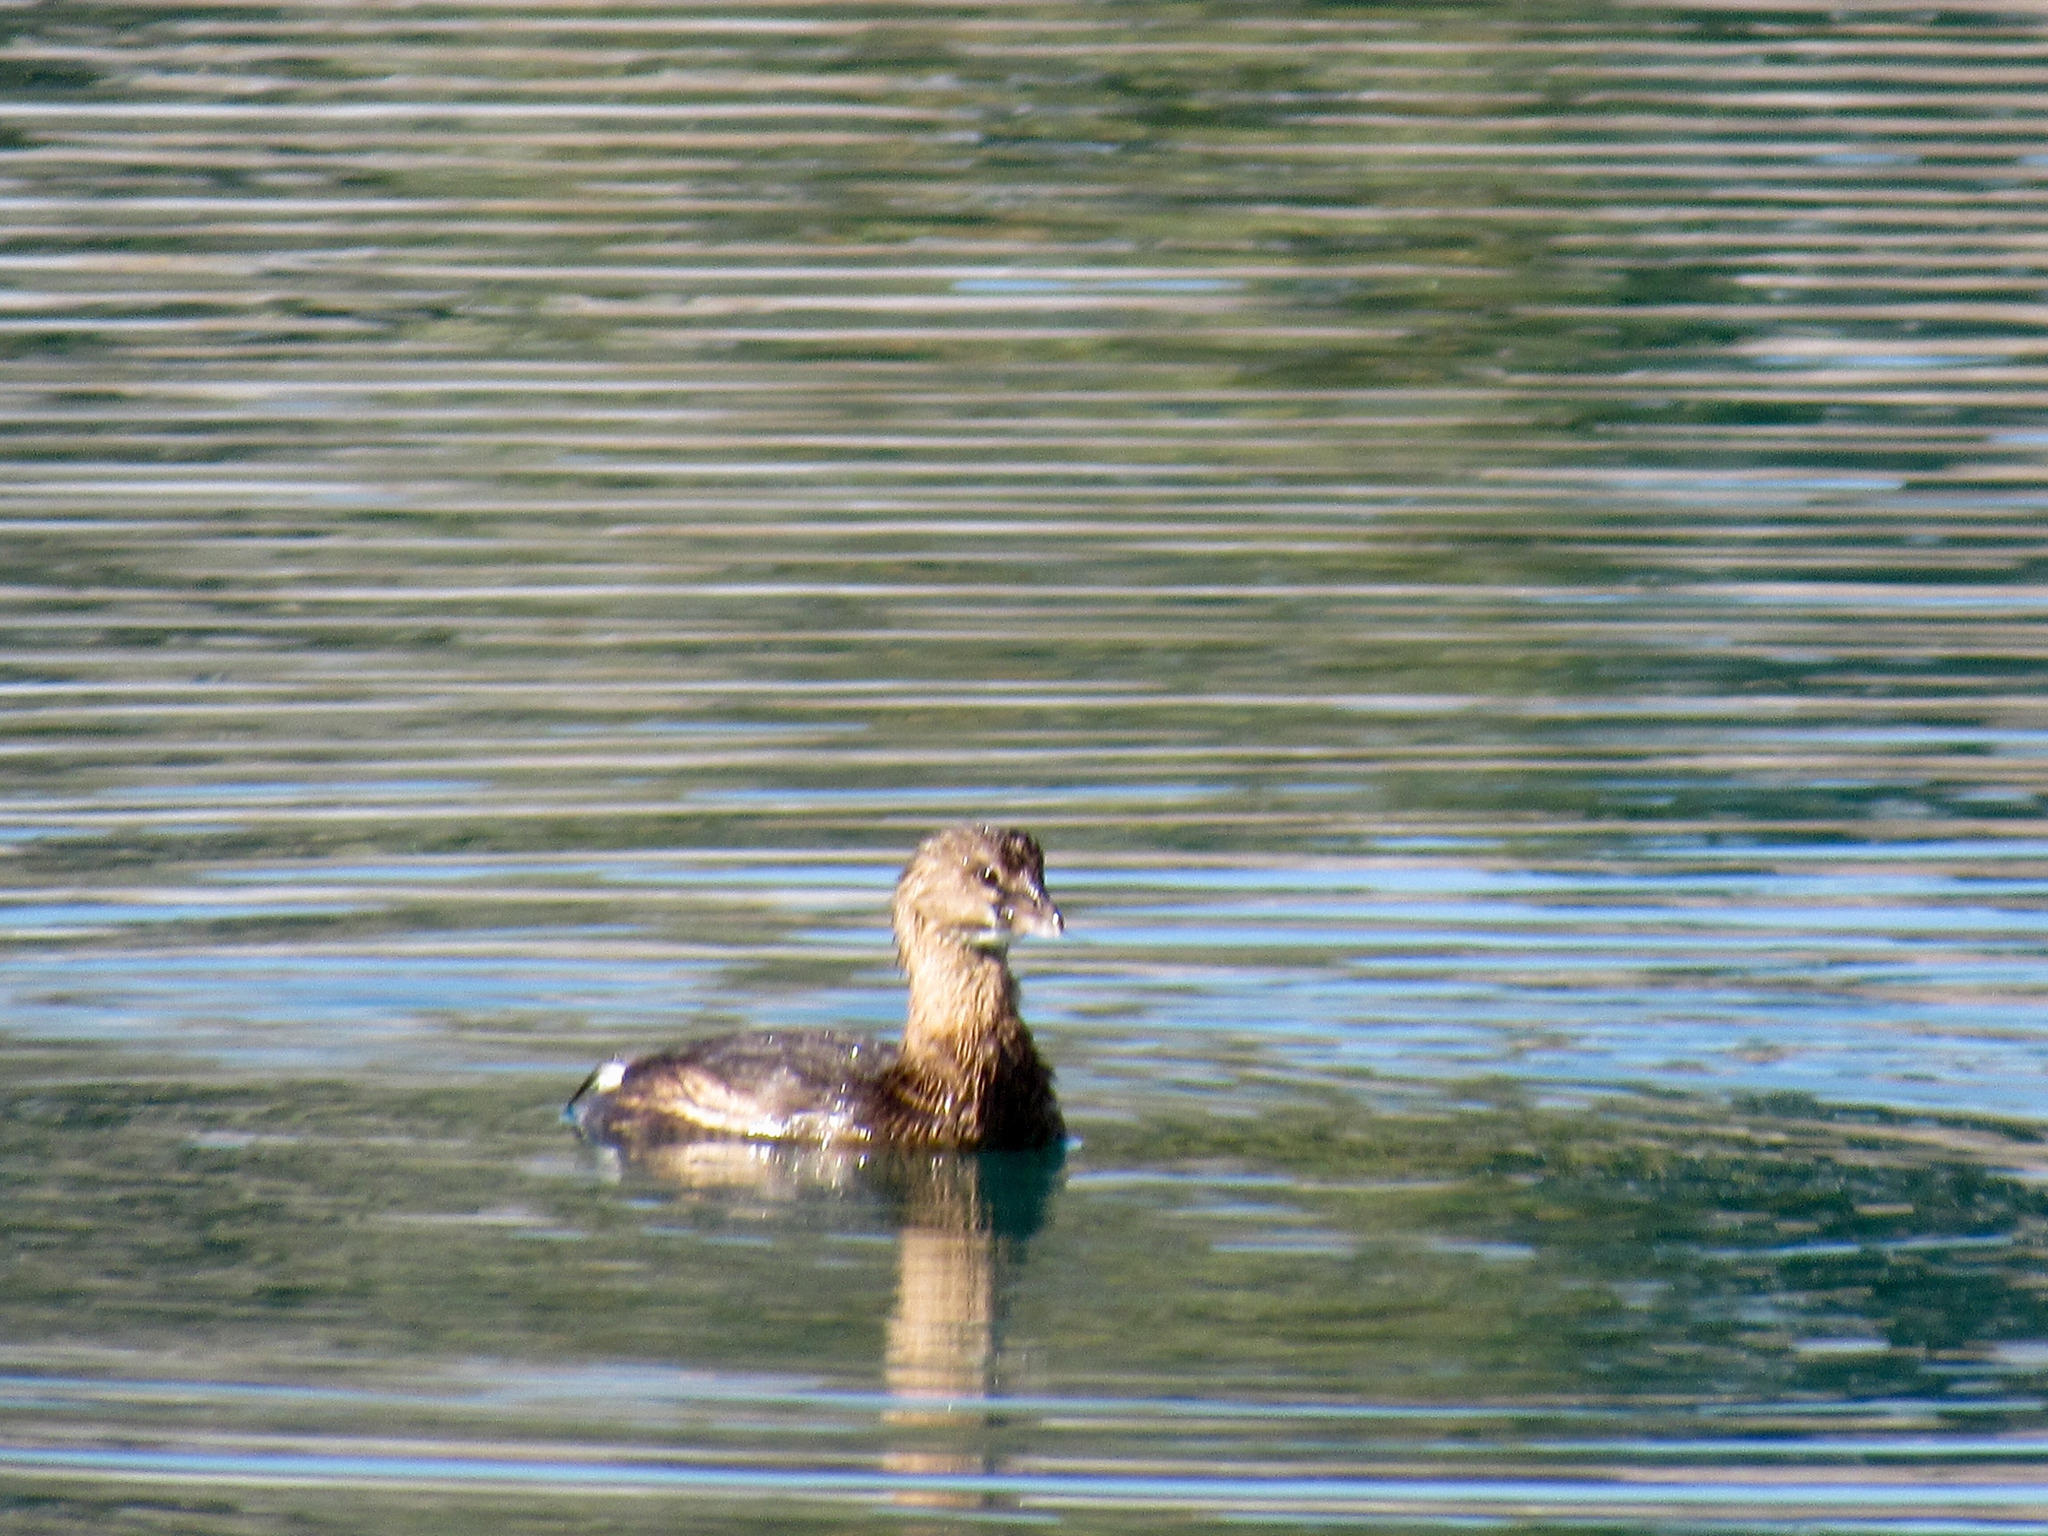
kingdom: Animalia
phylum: Chordata
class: Aves
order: Podicipediformes
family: Podicipedidae
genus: Podilymbus
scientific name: Podilymbus podiceps
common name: Pied-billed grebe
